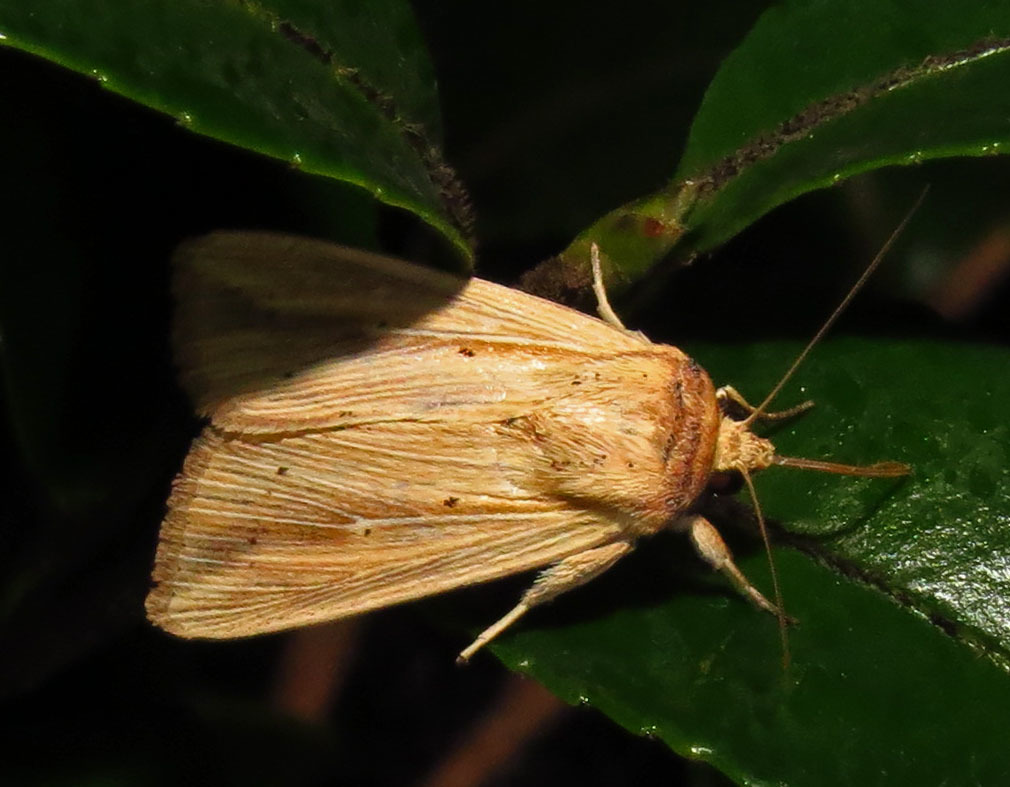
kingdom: Animalia
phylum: Arthropoda
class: Insecta
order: Lepidoptera
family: Noctuidae
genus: Leucania
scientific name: Leucania adjuta
